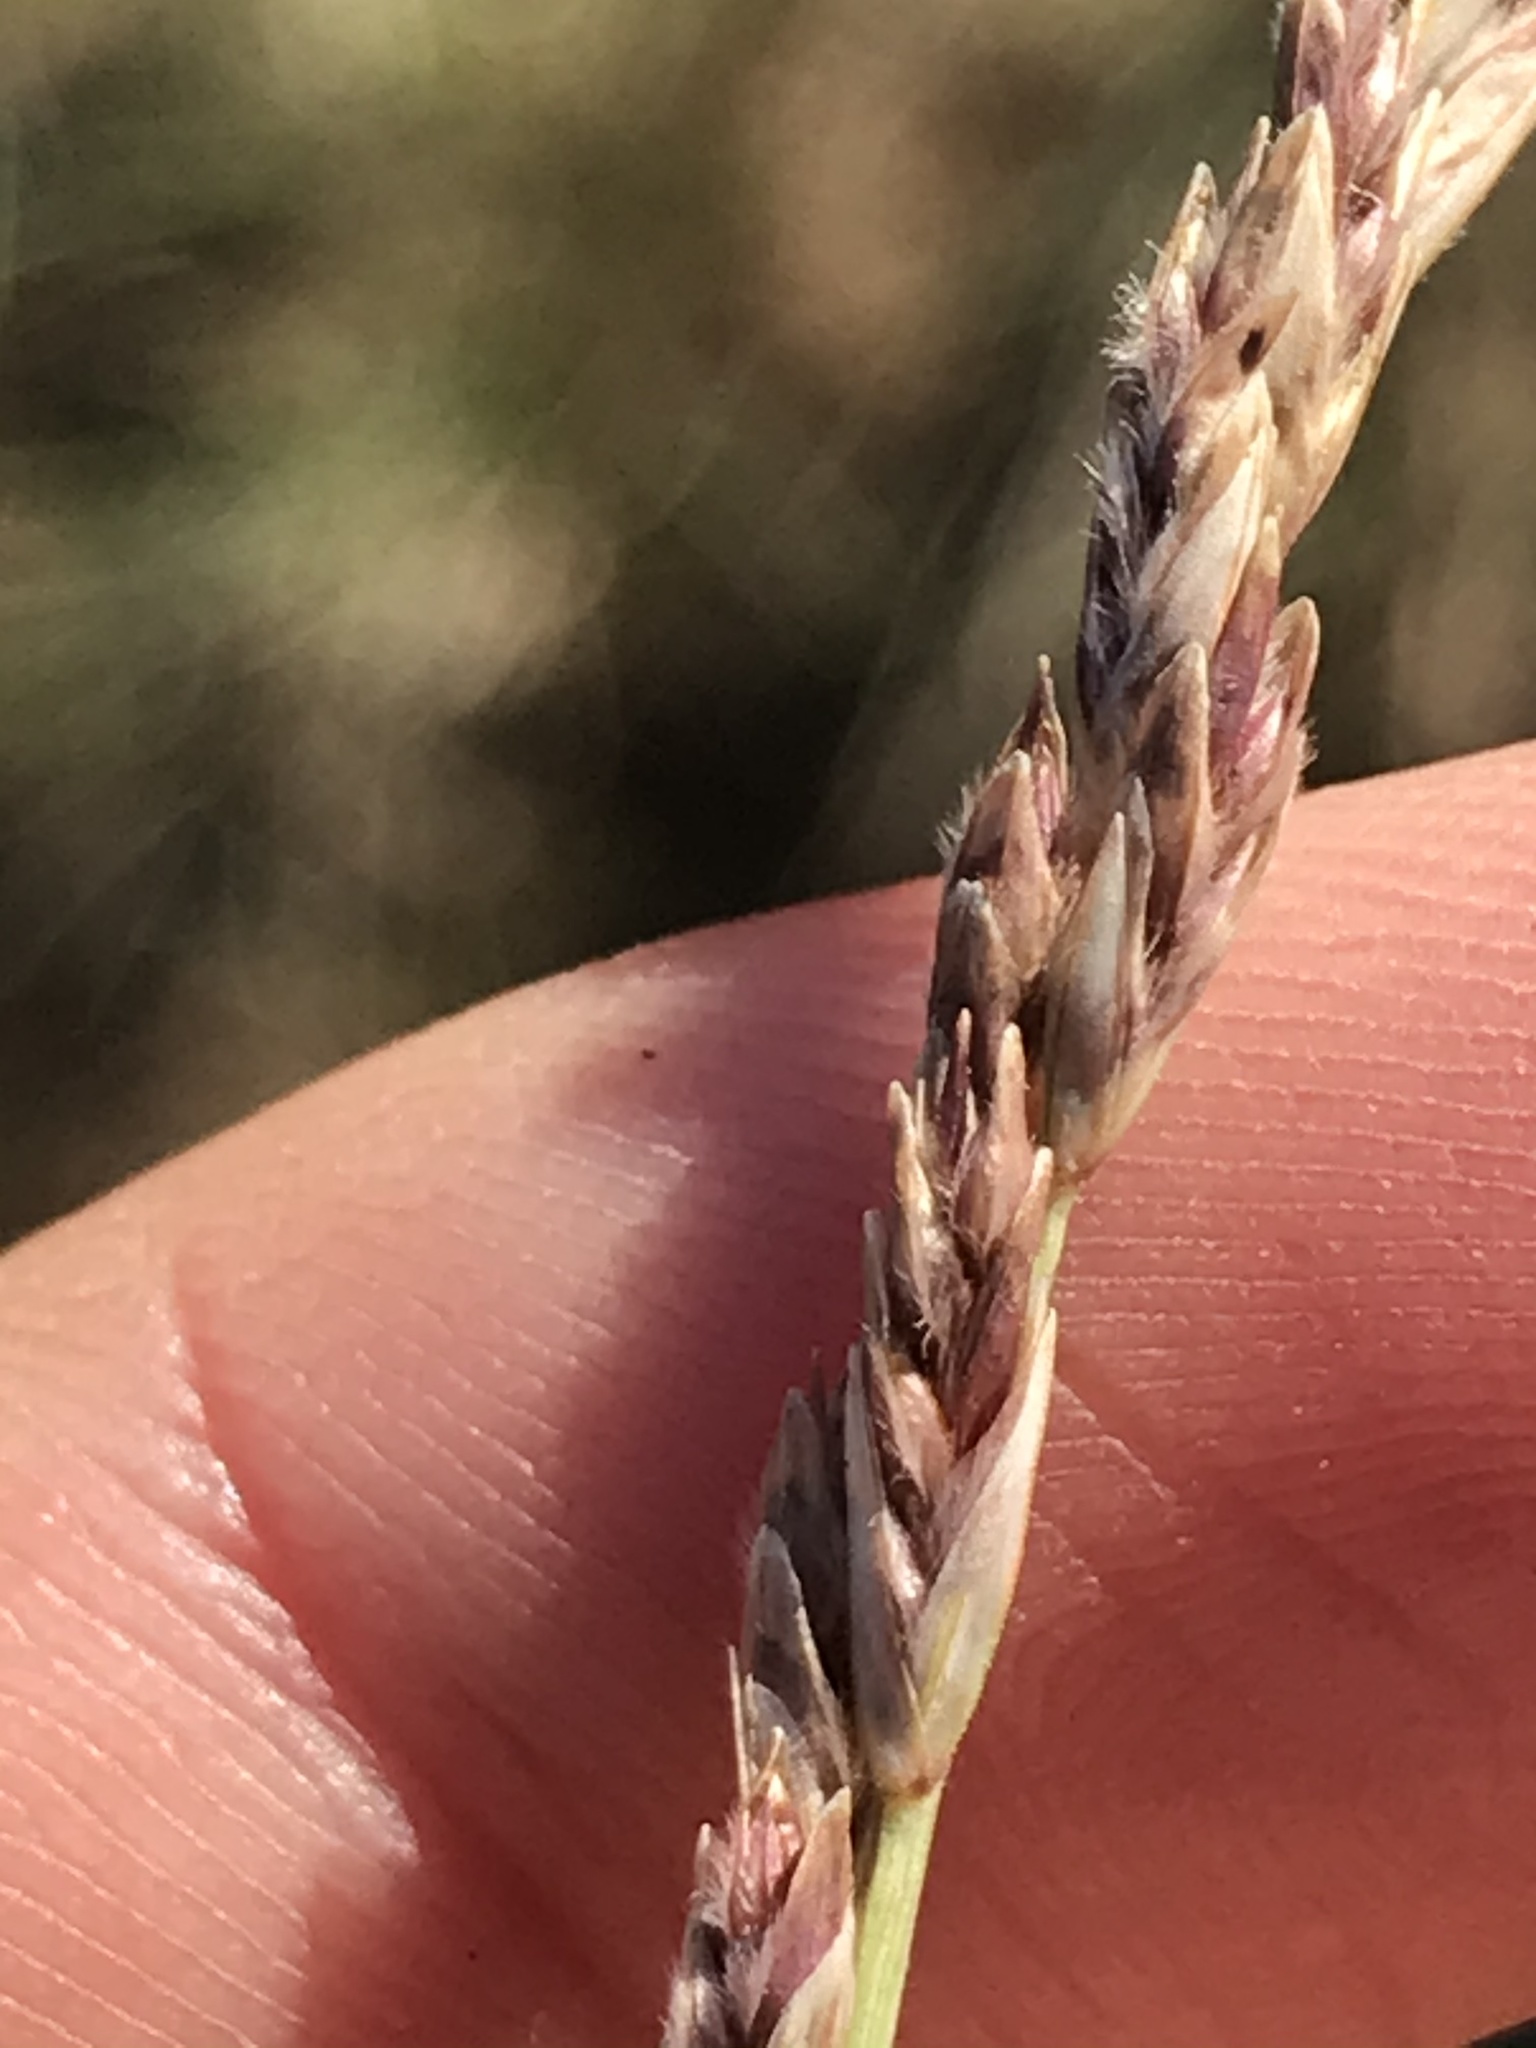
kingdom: Plantae
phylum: Tracheophyta
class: Liliopsida
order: Poales
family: Poaceae
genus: Tridentopsis
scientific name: Tridentopsis mutica
